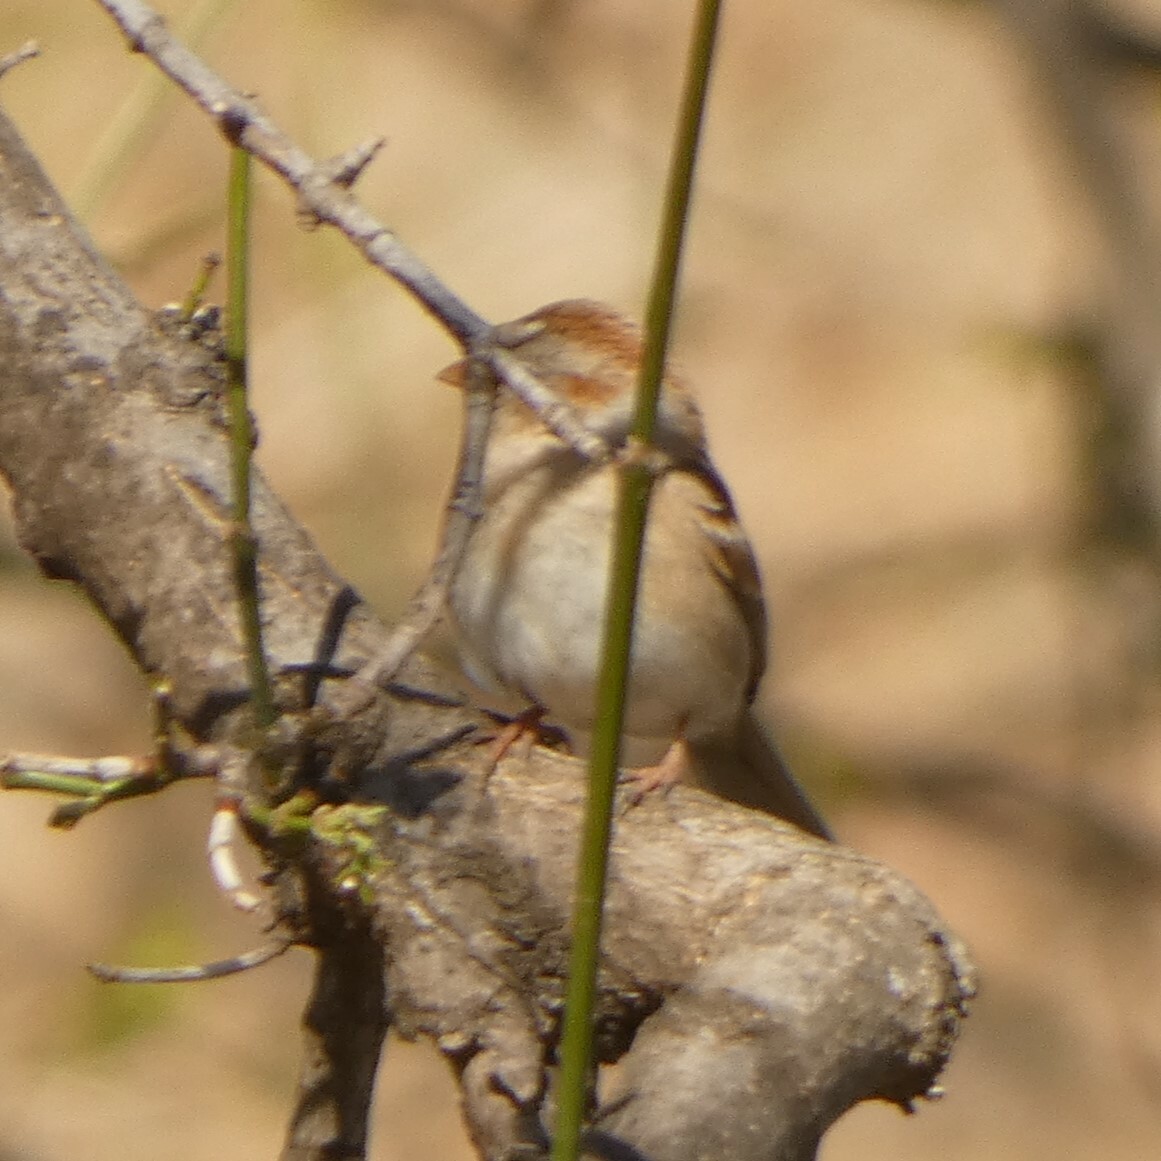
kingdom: Animalia
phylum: Chordata
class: Aves
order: Passeriformes
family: Passerellidae
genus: Spizella
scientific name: Spizella pusilla
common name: Field sparrow
